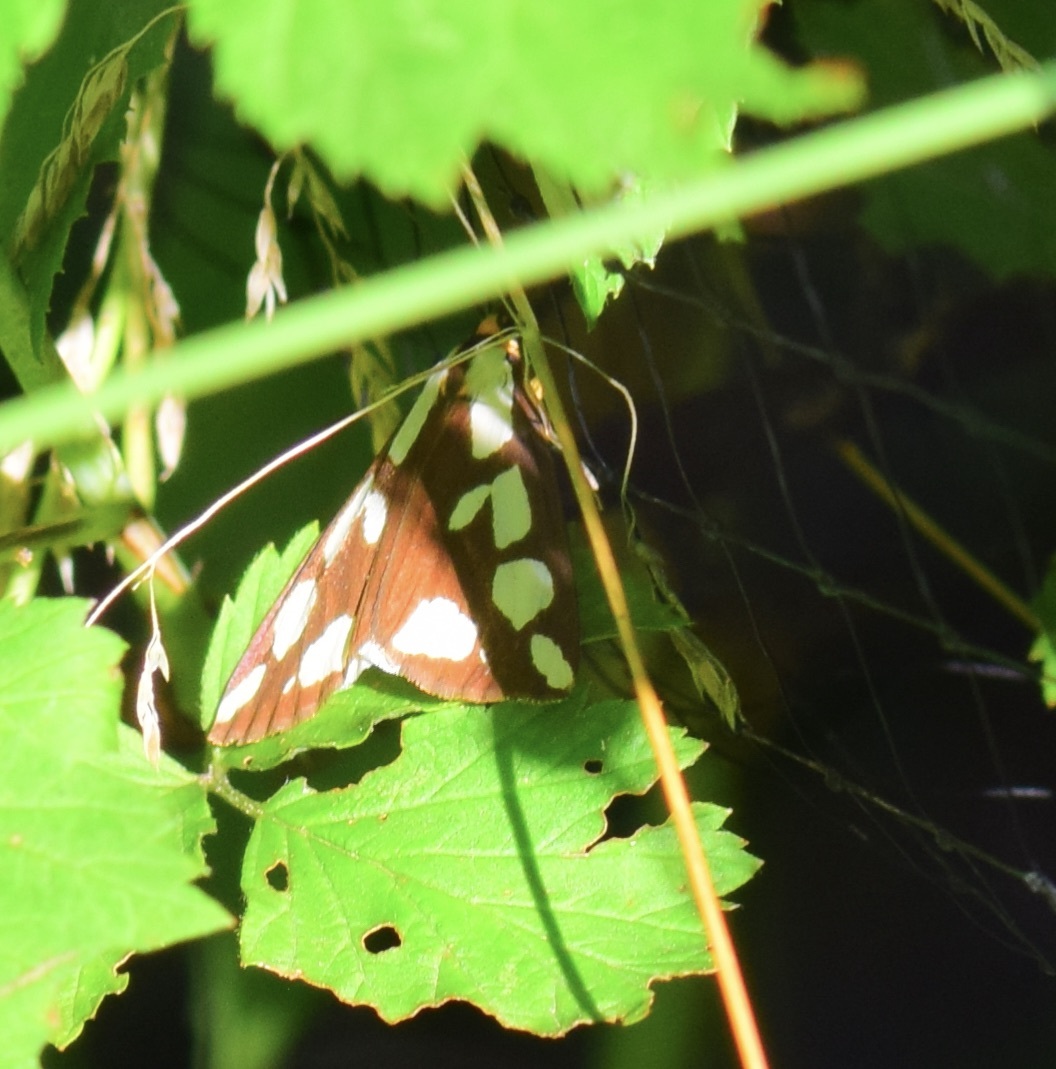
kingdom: Animalia
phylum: Arthropoda
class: Insecta
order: Lepidoptera
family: Erebidae
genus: Haploa
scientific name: Haploa confusa
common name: Confused haploa moth
